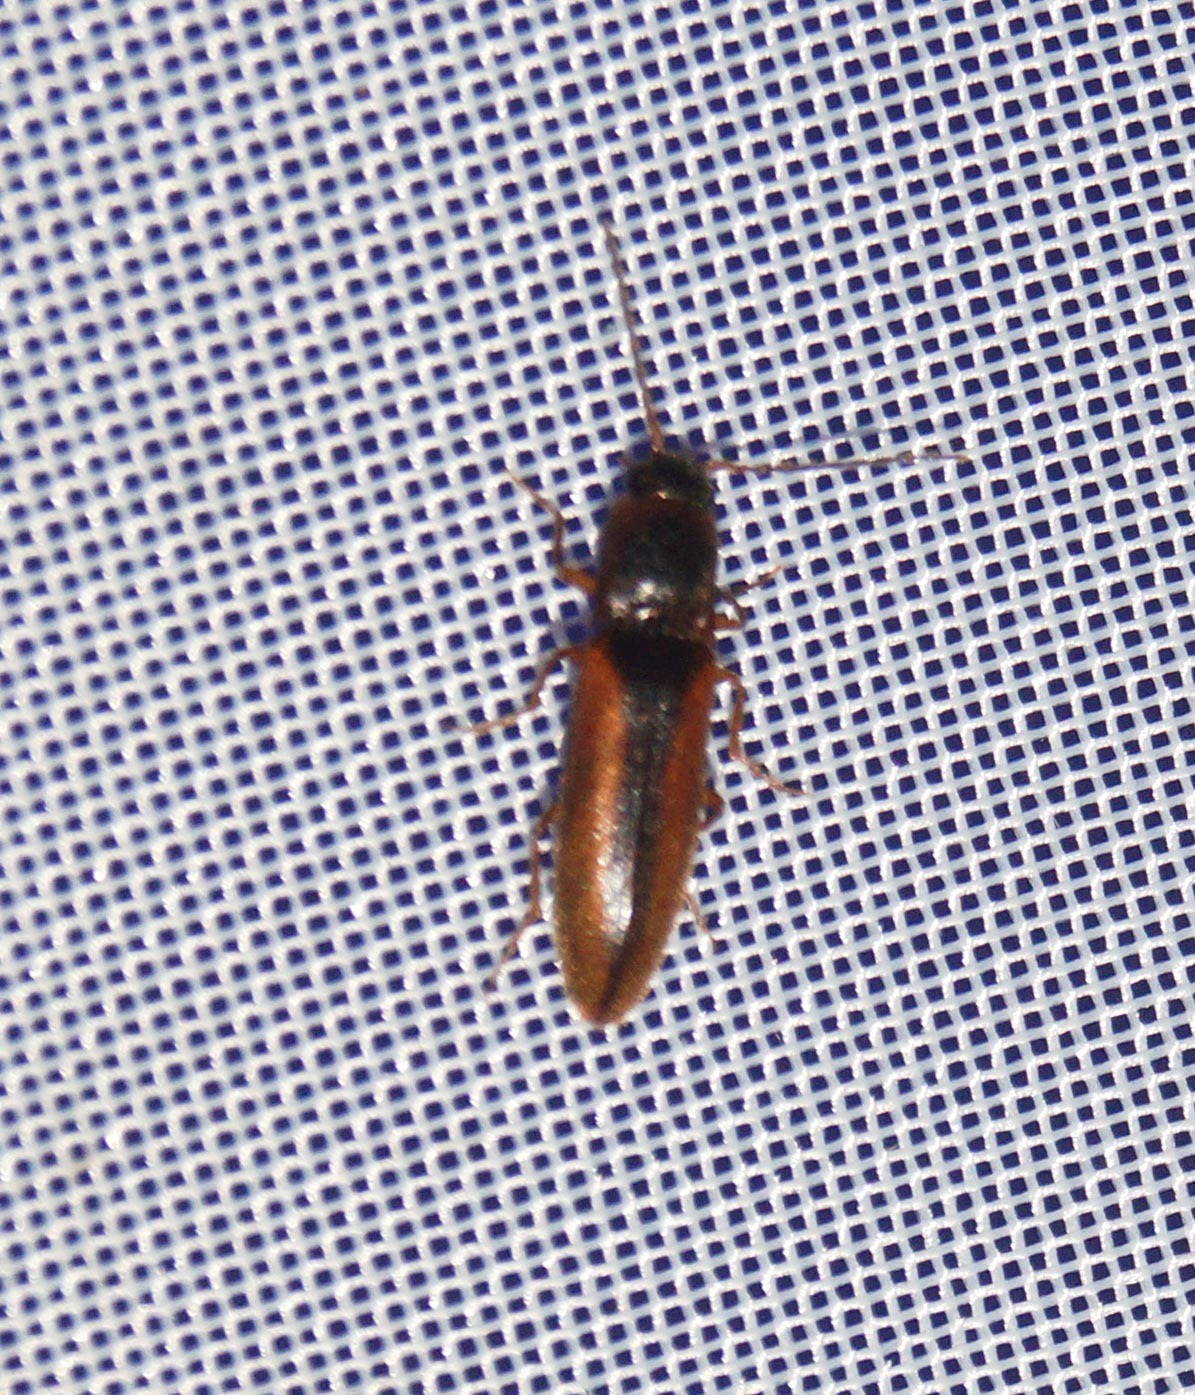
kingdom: Animalia
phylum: Arthropoda
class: Insecta
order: Coleoptera
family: Elateridae
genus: Dalopius
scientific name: Dalopius marginatus
